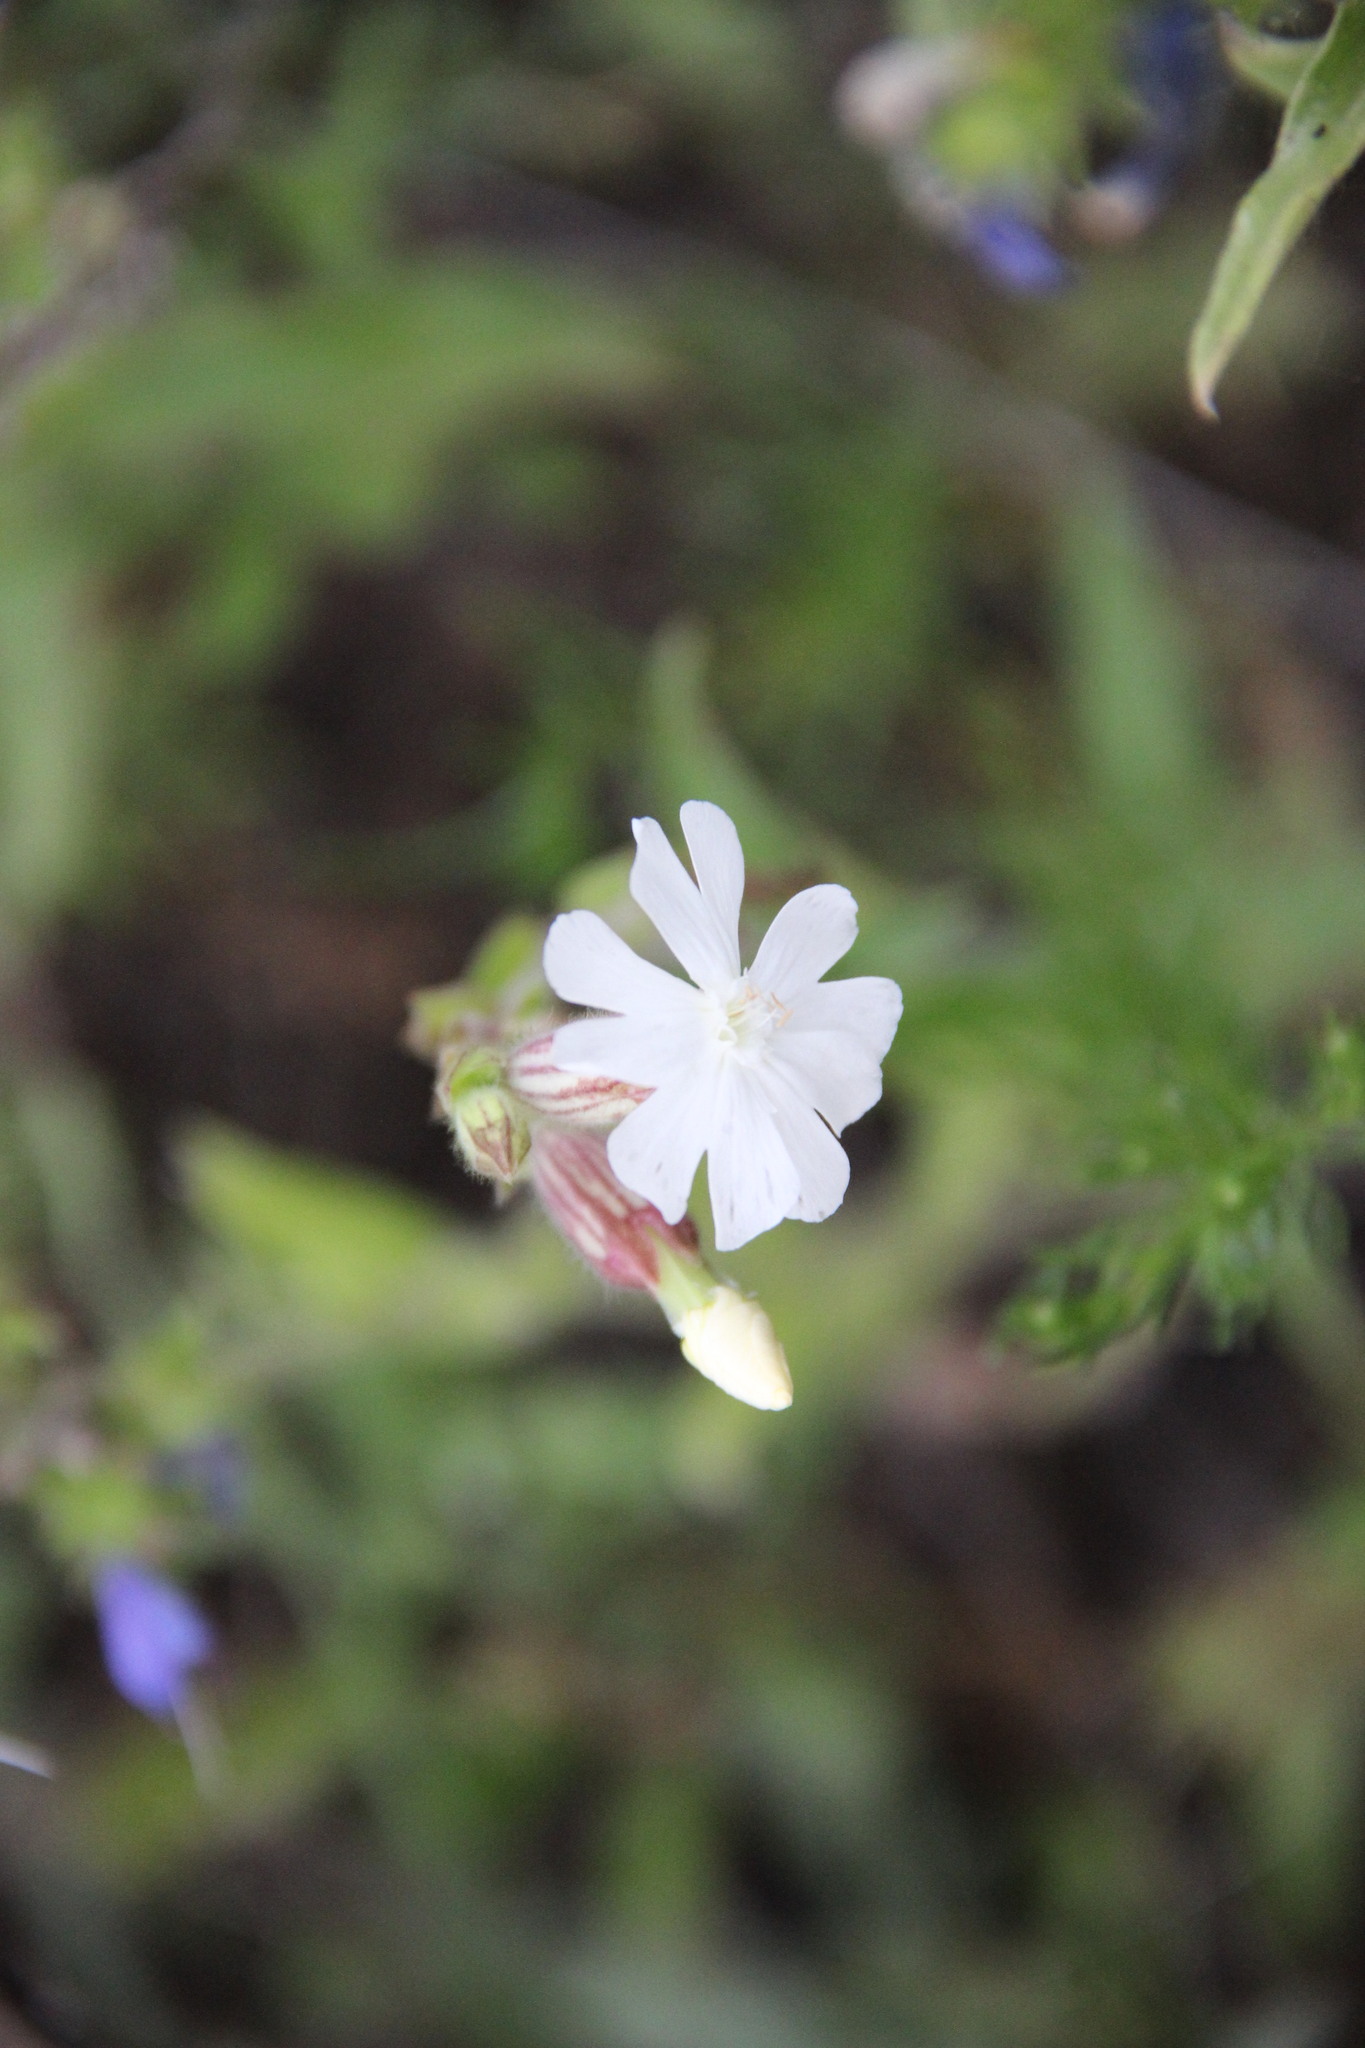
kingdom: Plantae
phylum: Tracheophyta
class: Magnoliopsida
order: Caryophyllales
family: Caryophyllaceae
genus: Silene
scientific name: Silene latifolia
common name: White campion
